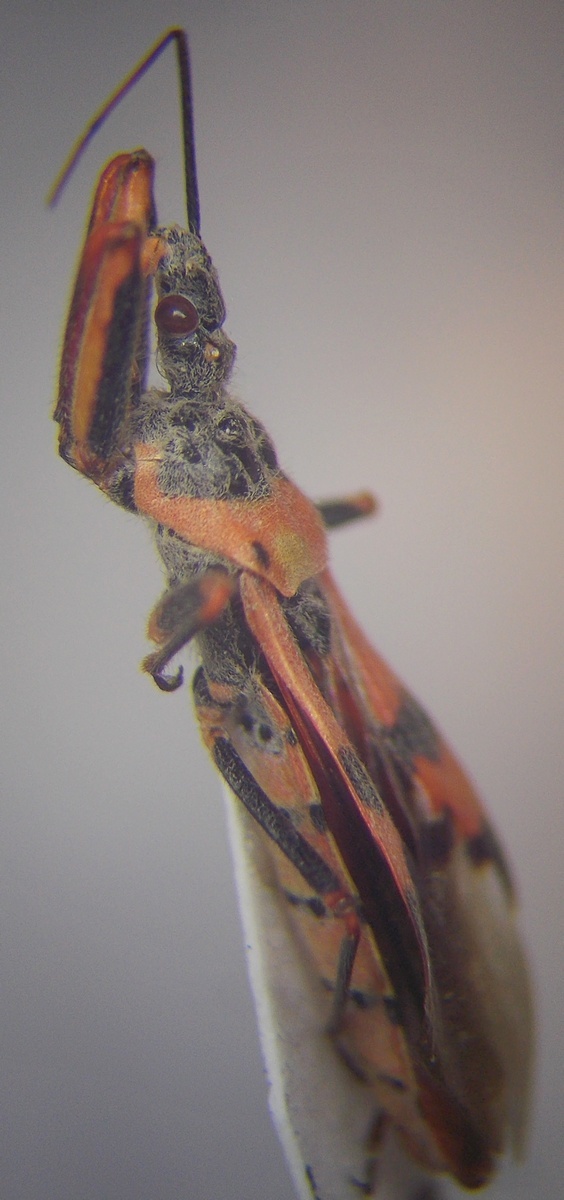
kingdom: Animalia
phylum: Arthropoda
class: Insecta
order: Hemiptera
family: Reduviidae
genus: Callistodema
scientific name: Callistodema fasciata
